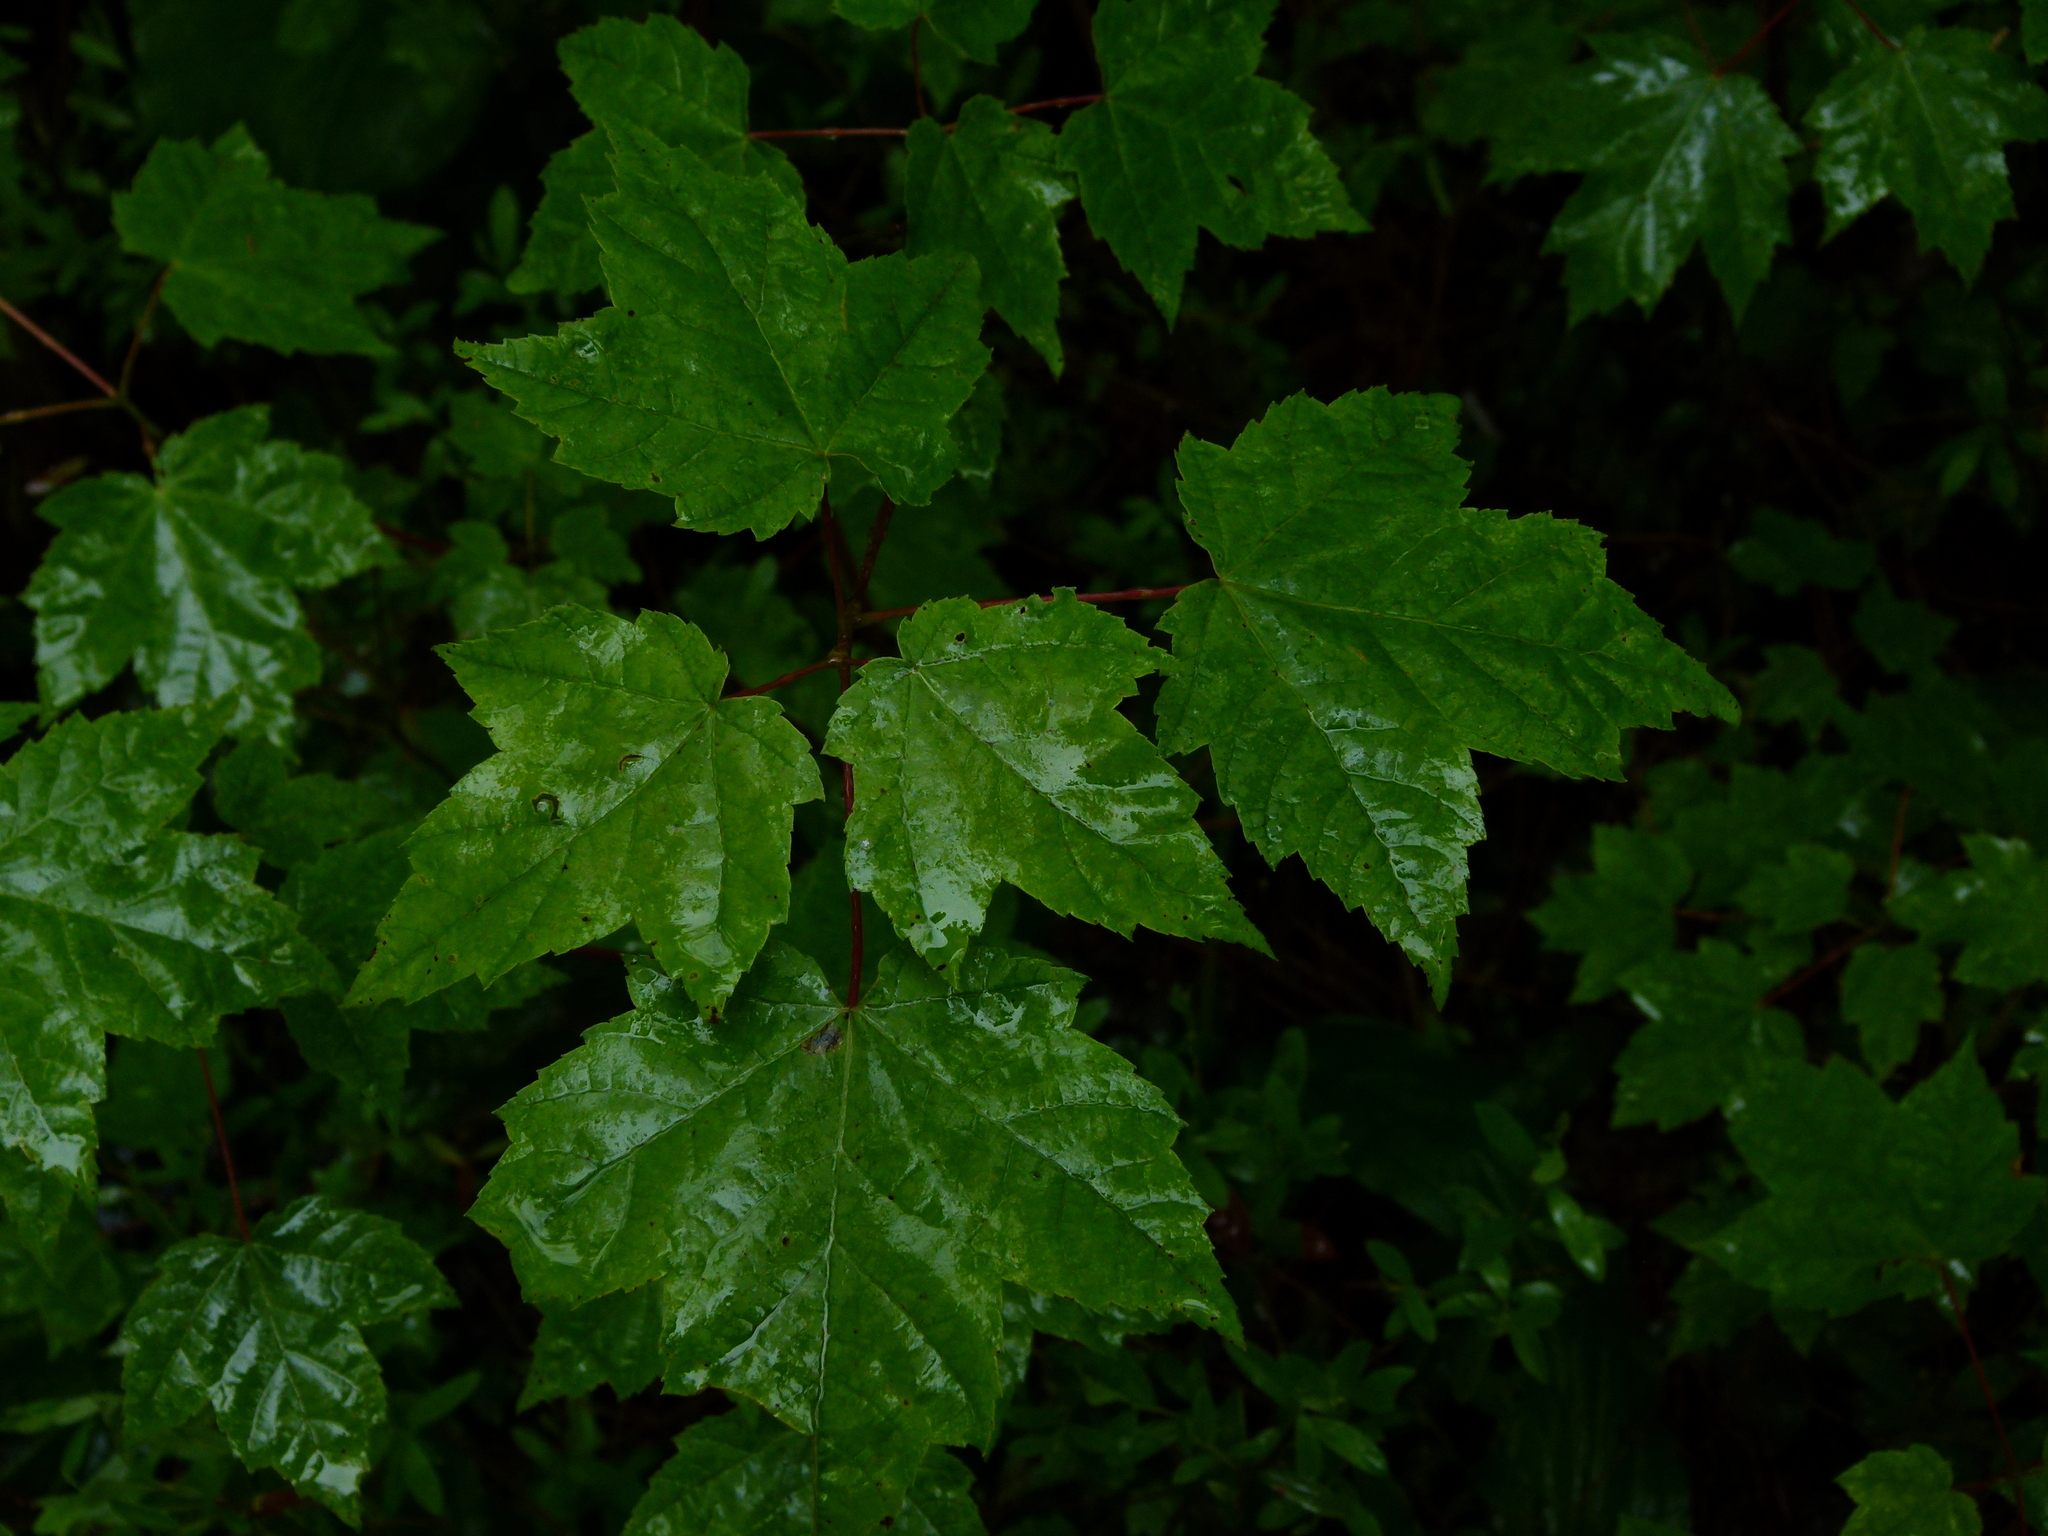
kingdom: Plantae
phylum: Tracheophyta
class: Magnoliopsida
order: Sapindales
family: Sapindaceae
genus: Acer
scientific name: Acer rubrum
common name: Red maple
